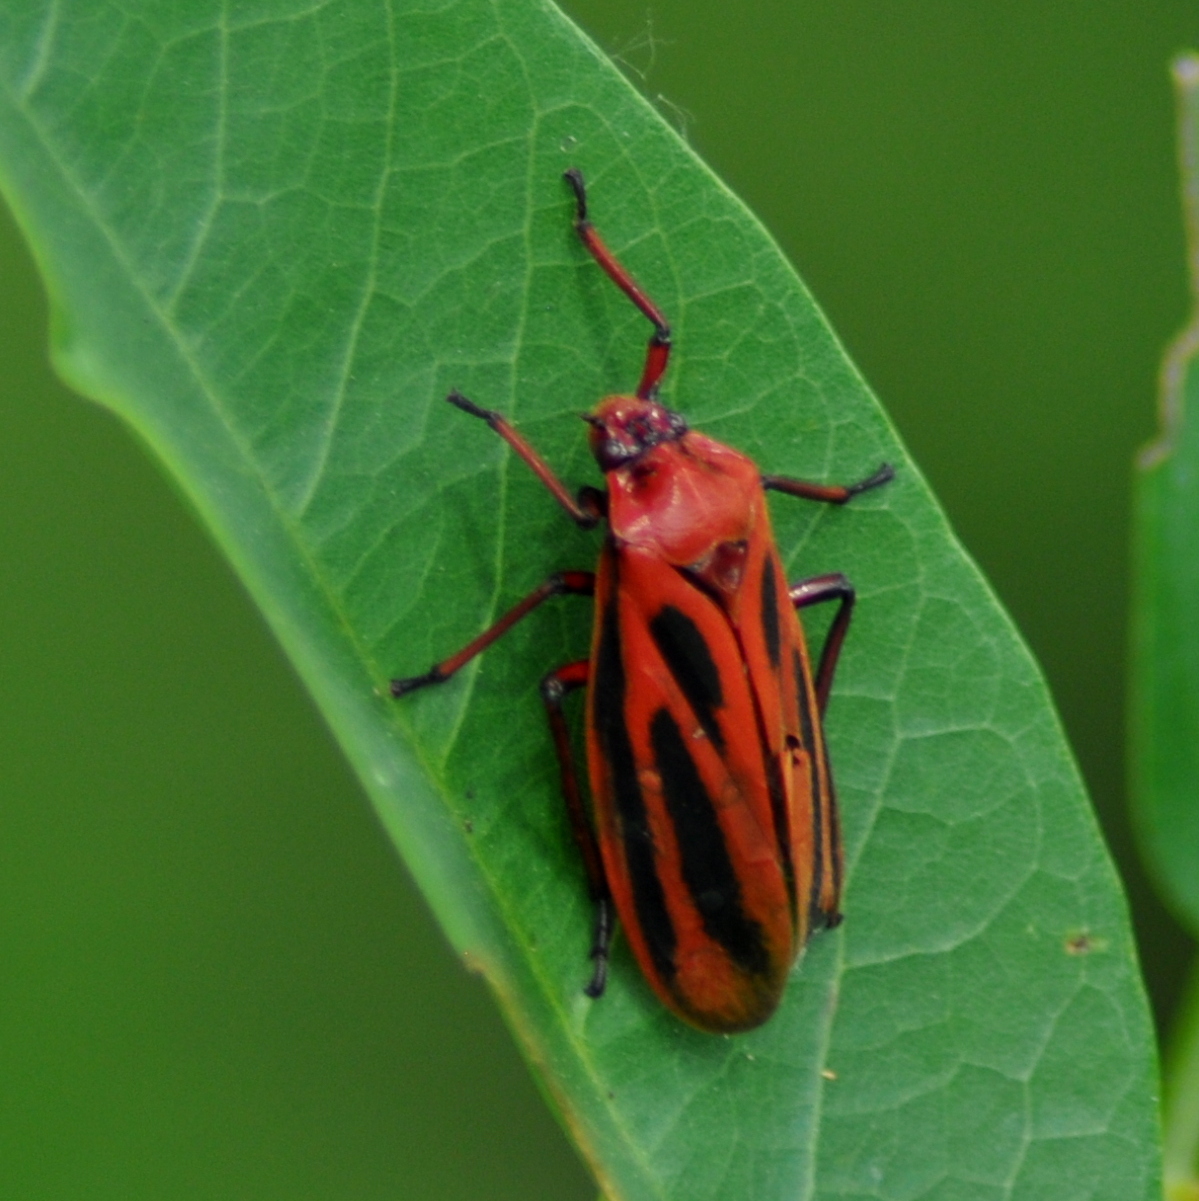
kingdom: Animalia
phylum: Arthropoda
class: Insecta
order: Hemiptera
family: Cercopidae
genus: Tomaspis
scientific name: Tomaspis furcata
